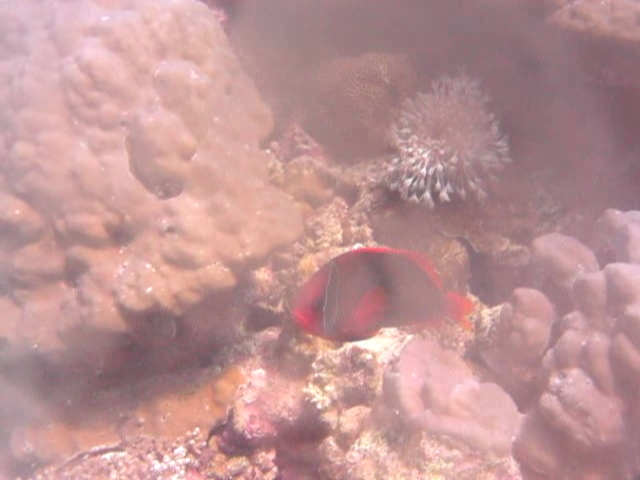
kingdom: Animalia
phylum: Chordata
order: Perciformes
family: Pomacentridae
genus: Amphiprion
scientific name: Amphiprion frenatus
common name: Tomato anemonefish
